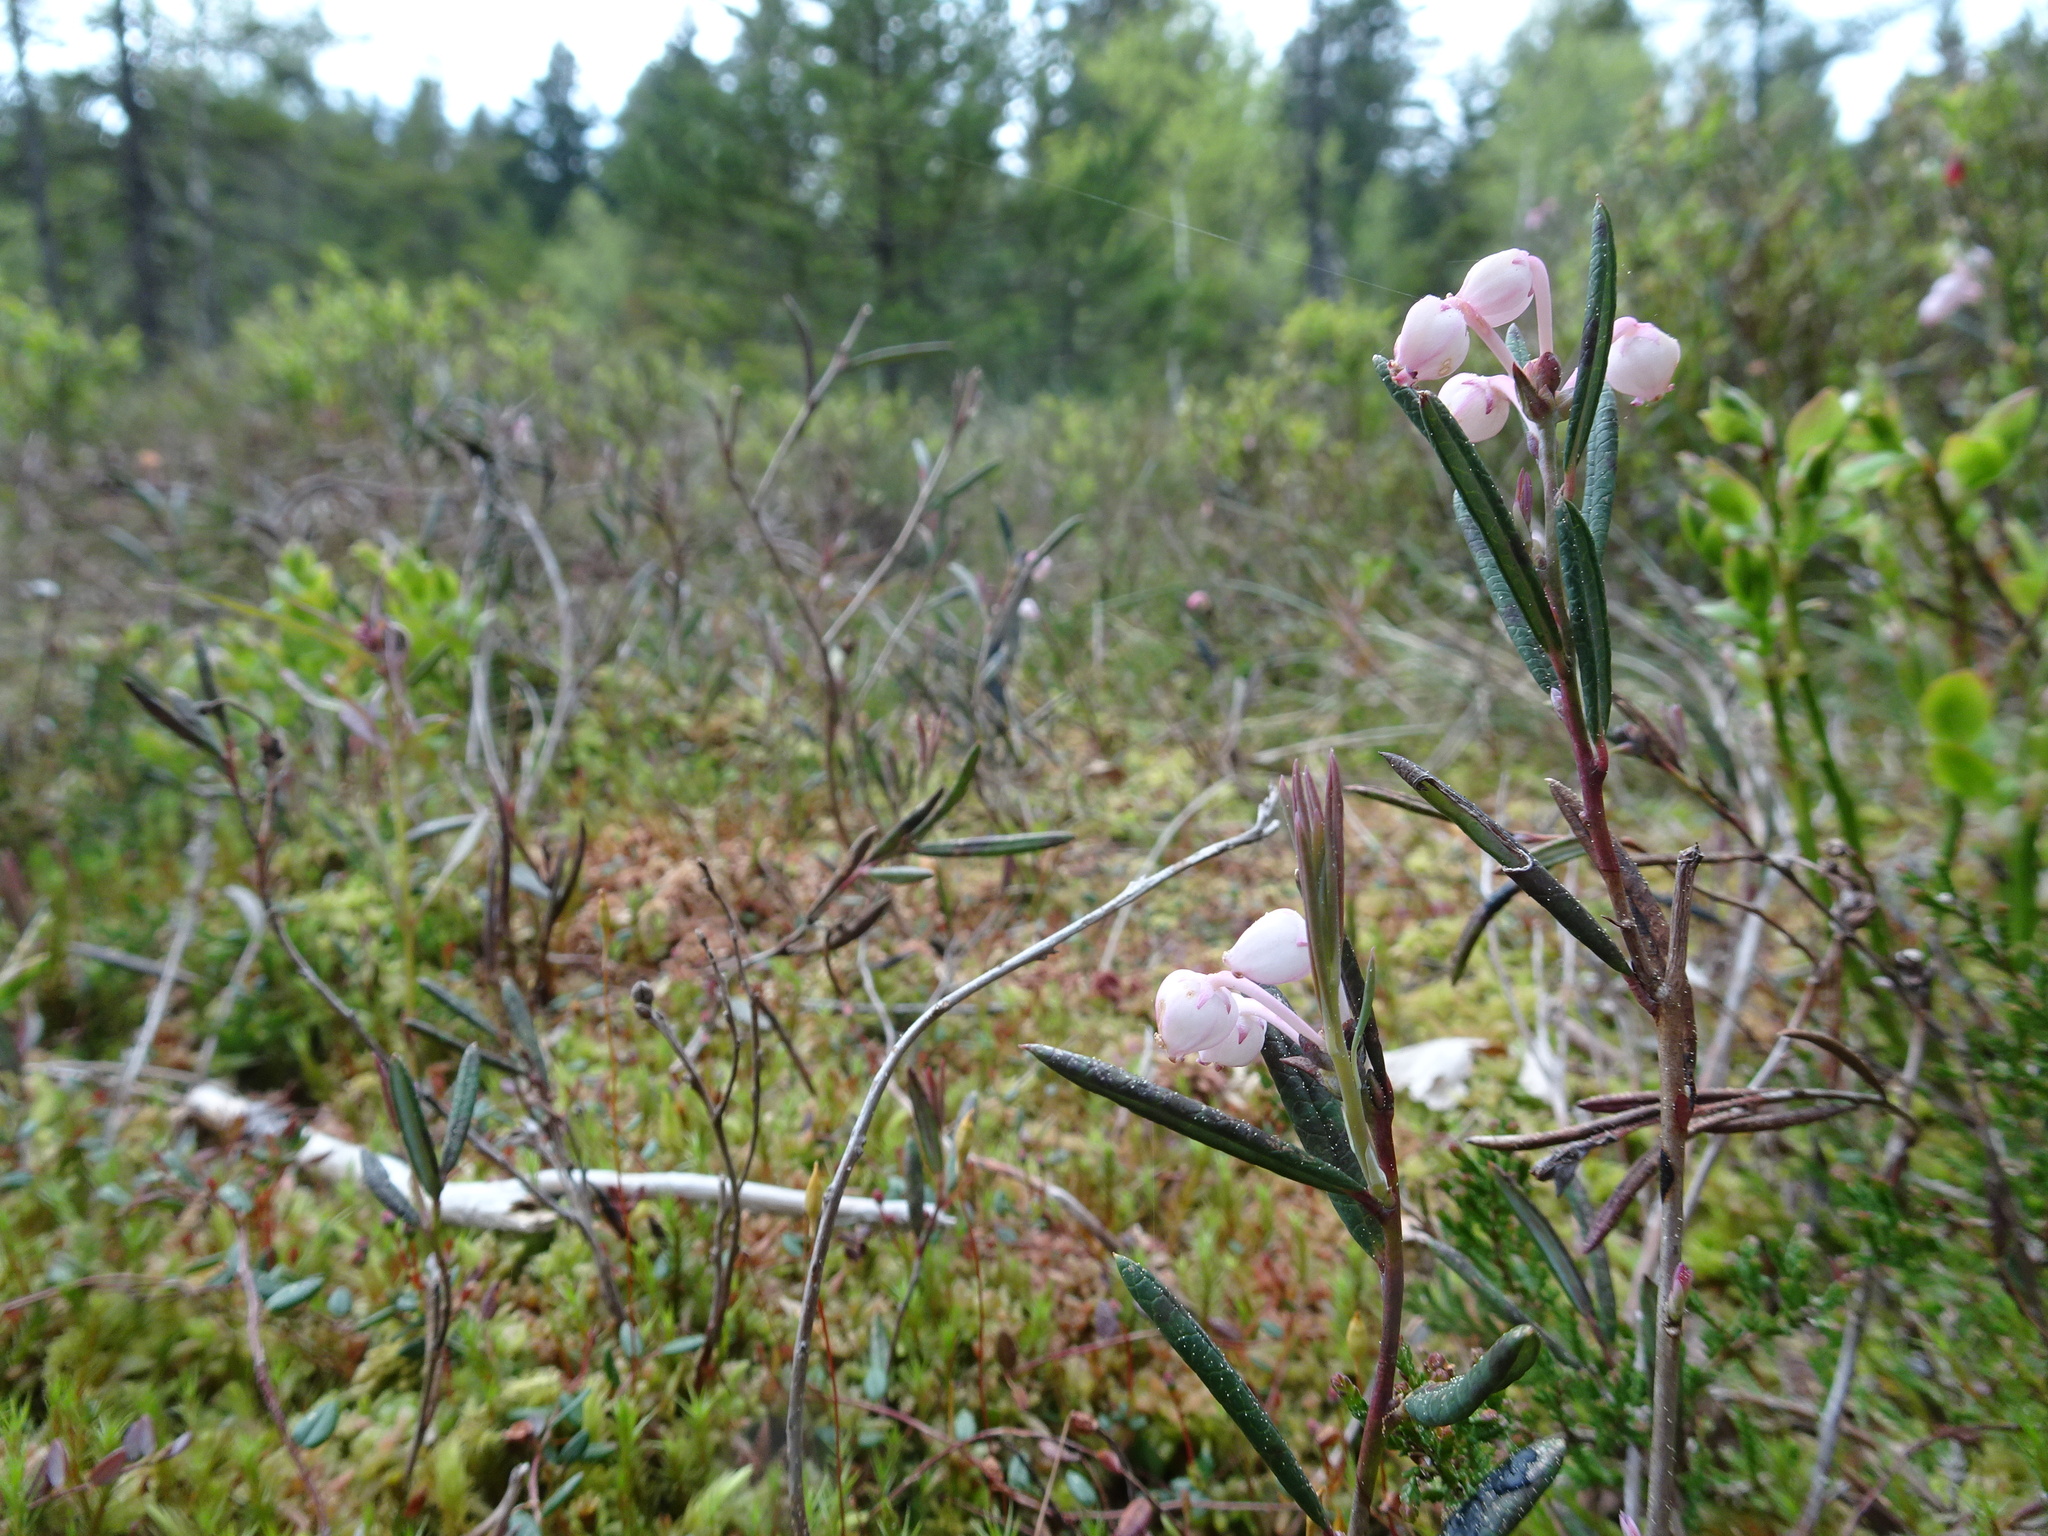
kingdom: Plantae
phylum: Tracheophyta
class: Magnoliopsida
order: Ericales
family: Ericaceae
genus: Andromeda
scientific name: Andromeda polifolia
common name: Bog-rosemary
